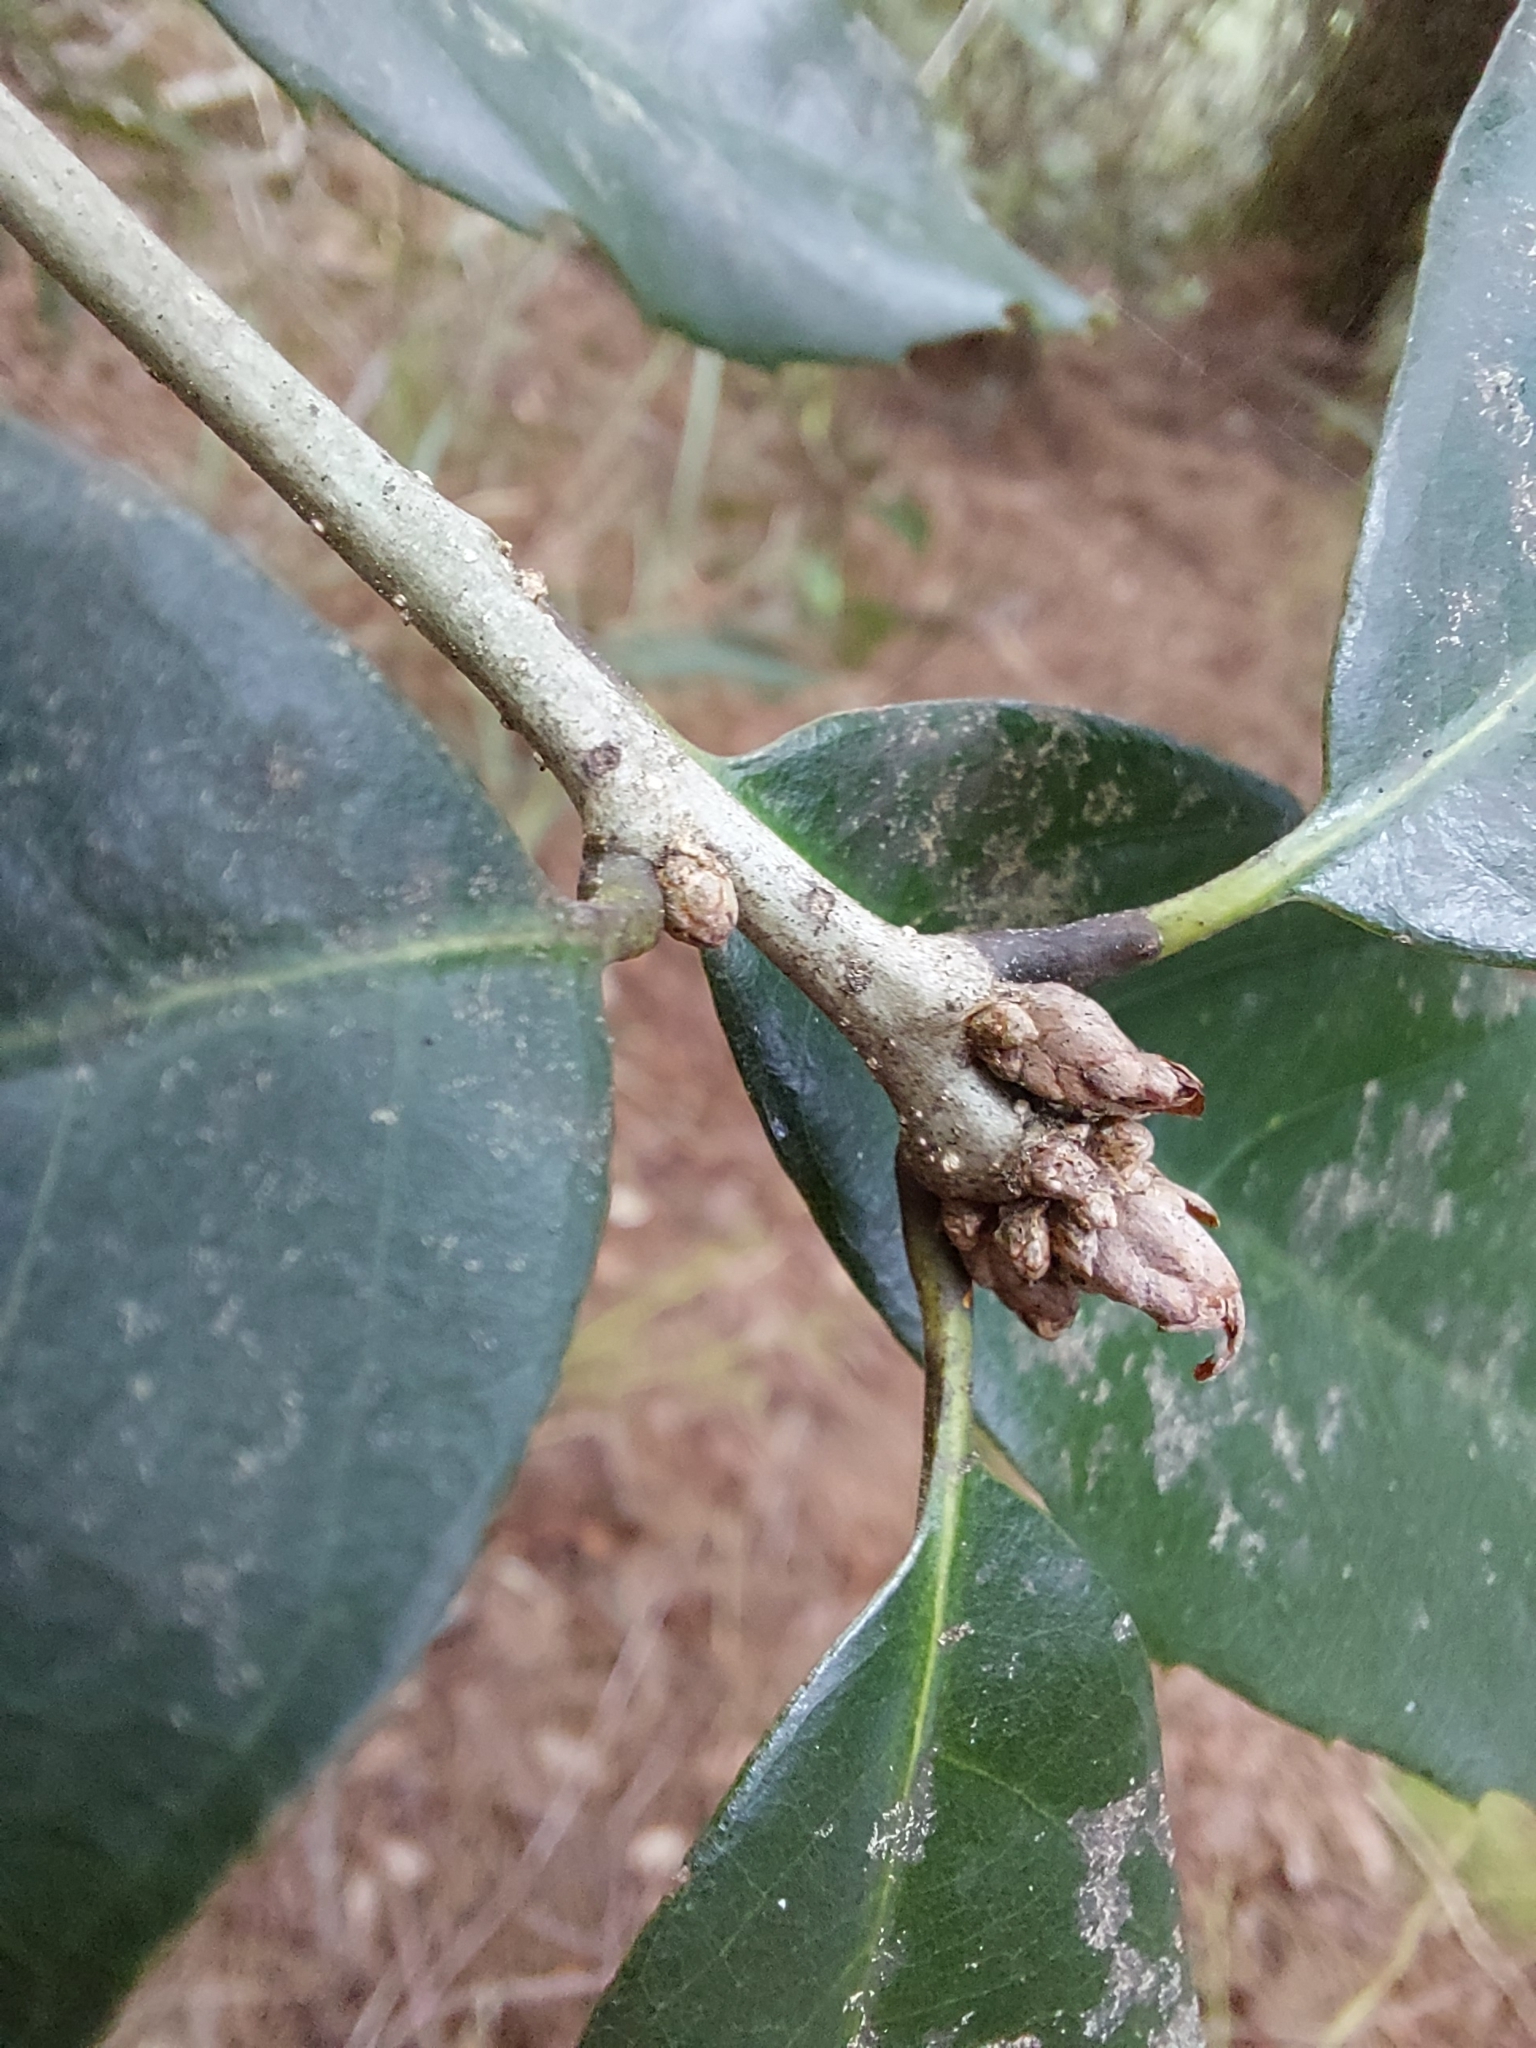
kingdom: Plantae
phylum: Tracheophyta
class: Magnoliopsida
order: Fagales
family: Fagaceae
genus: Quercus
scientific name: Quercus stenophylloides
